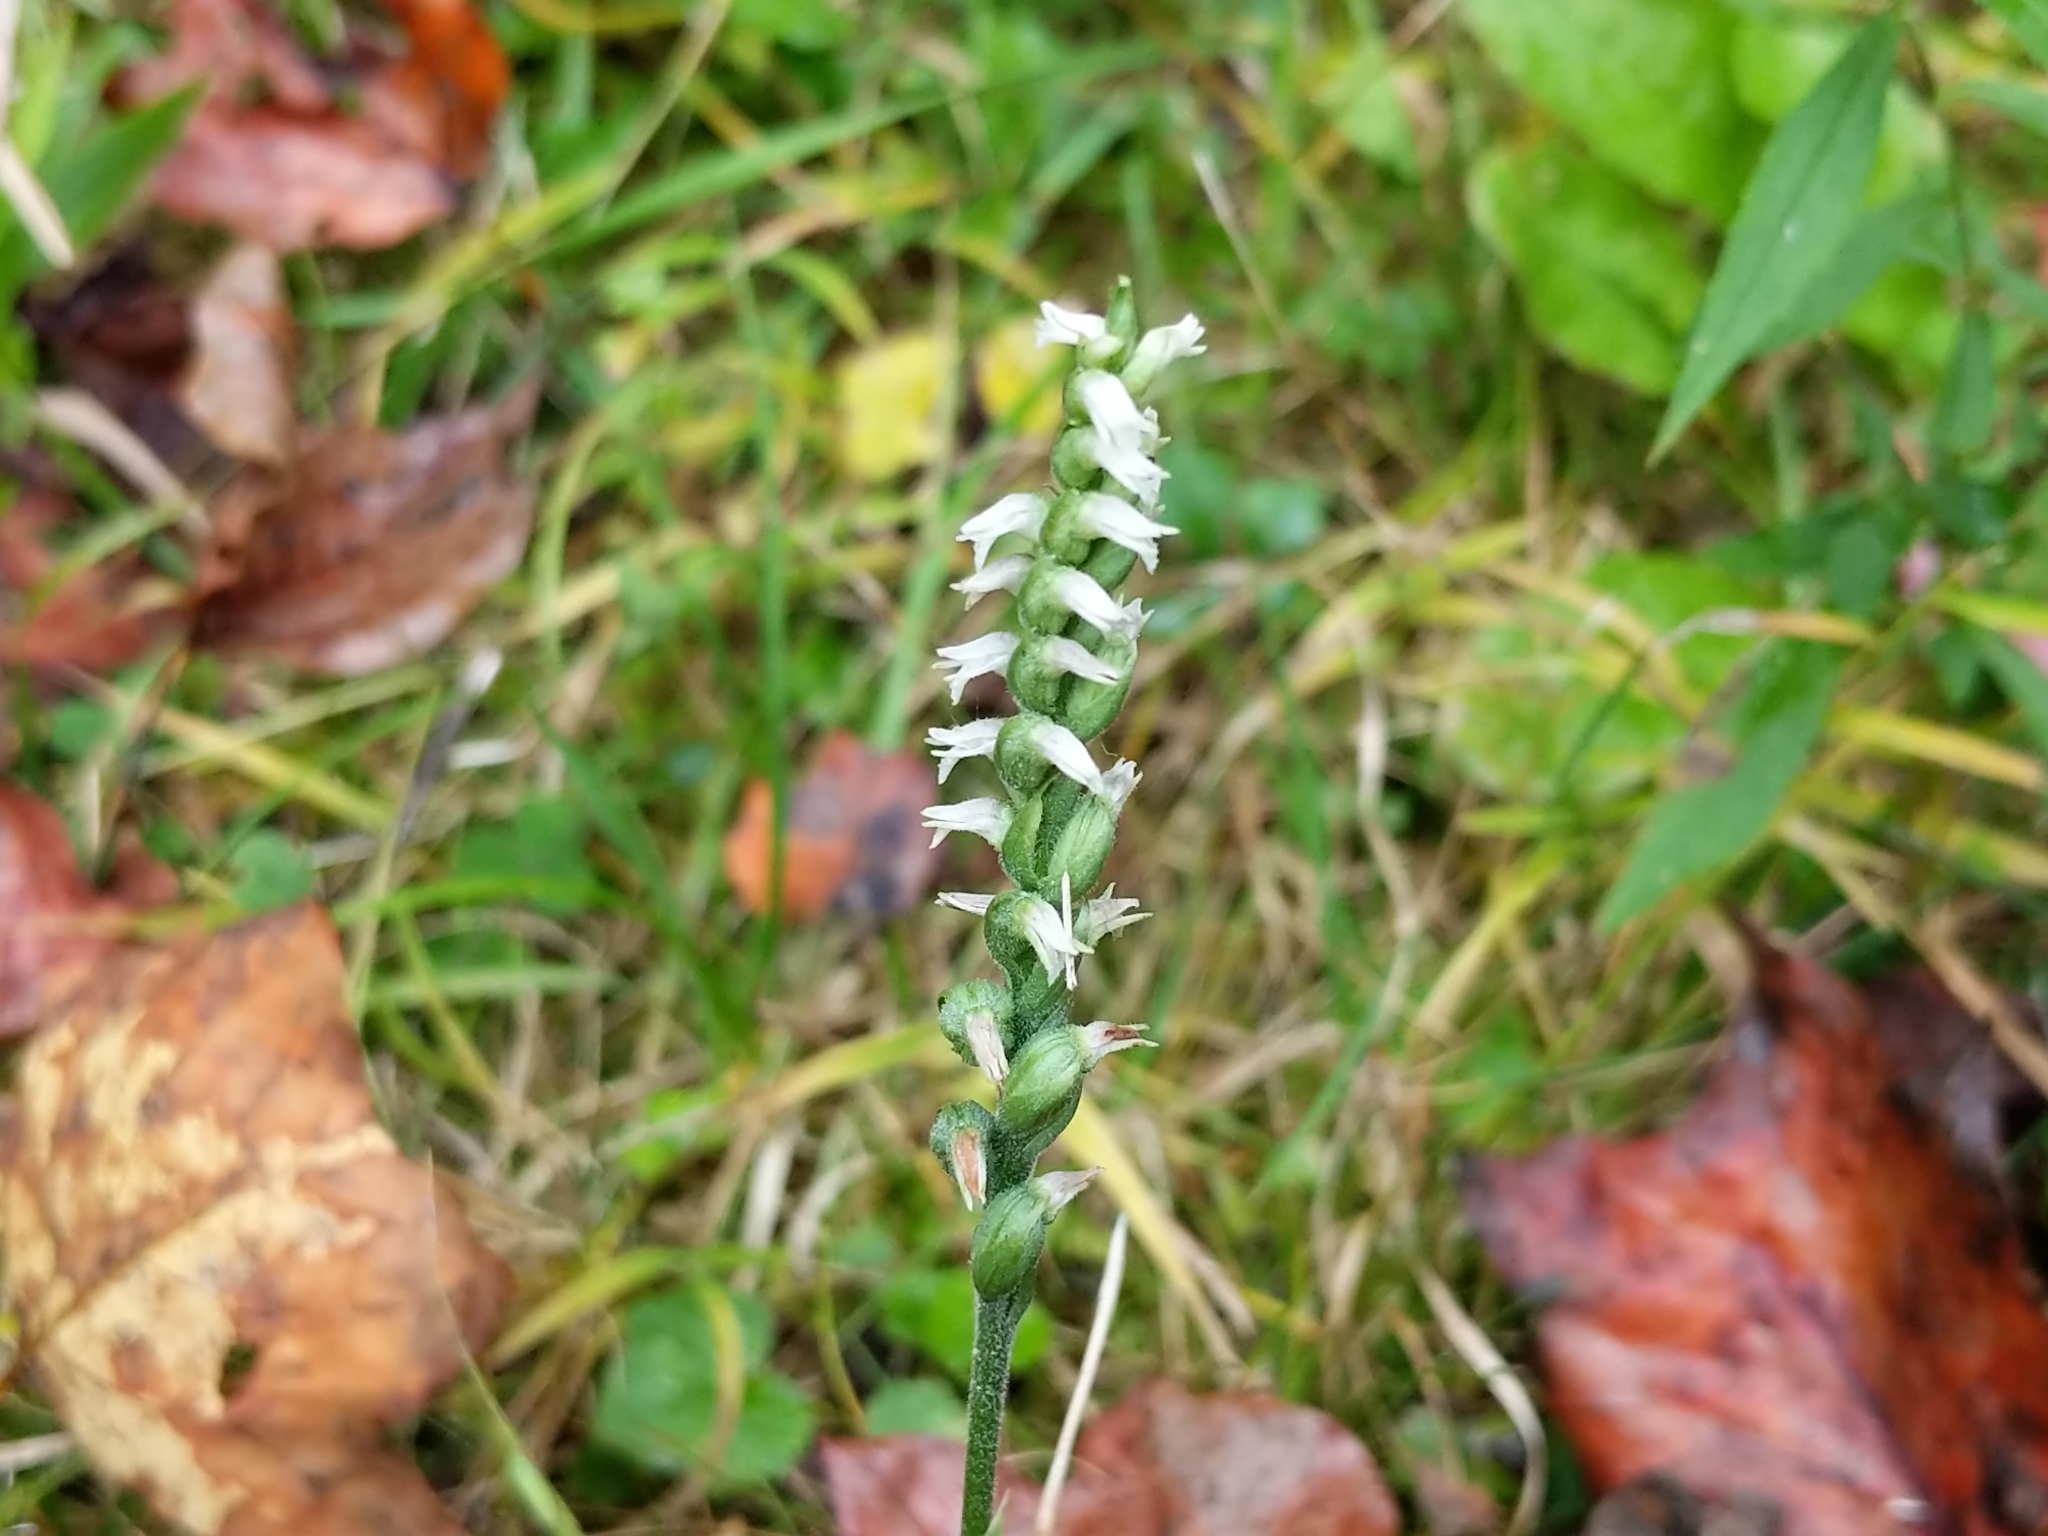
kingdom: Plantae
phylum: Tracheophyta
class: Liliopsida
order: Asparagales
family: Orchidaceae
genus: Spiranthes
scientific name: Spiranthes ovalis
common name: October ladies'-tresses
